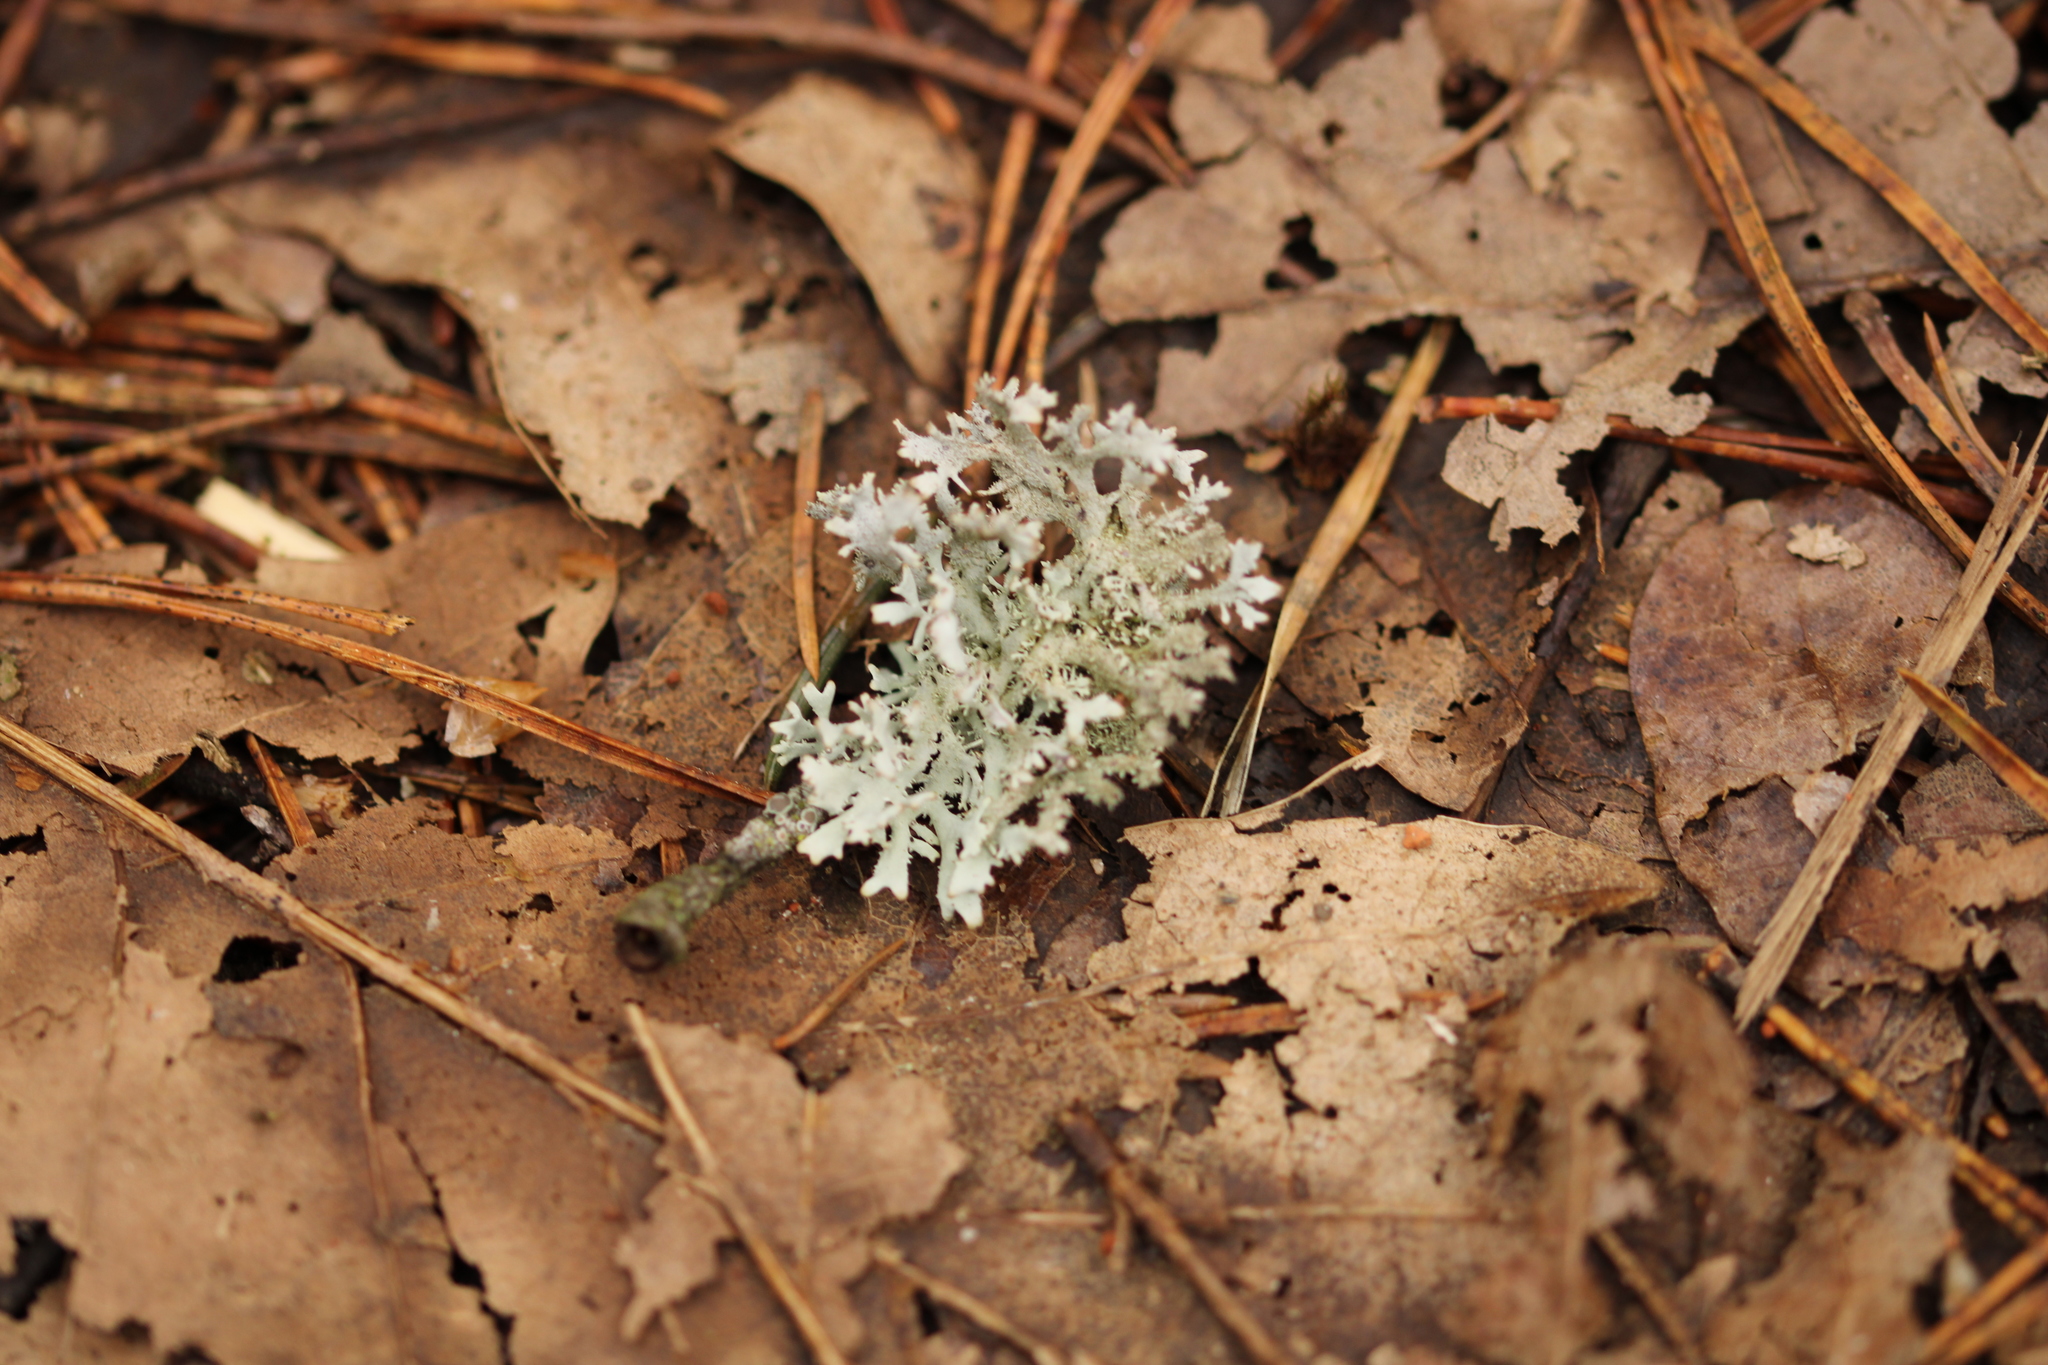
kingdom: Fungi
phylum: Ascomycota
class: Lecanoromycetes
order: Lecanorales
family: Parmeliaceae
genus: Pseudevernia
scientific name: Pseudevernia furfuracea
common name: Tree moss
